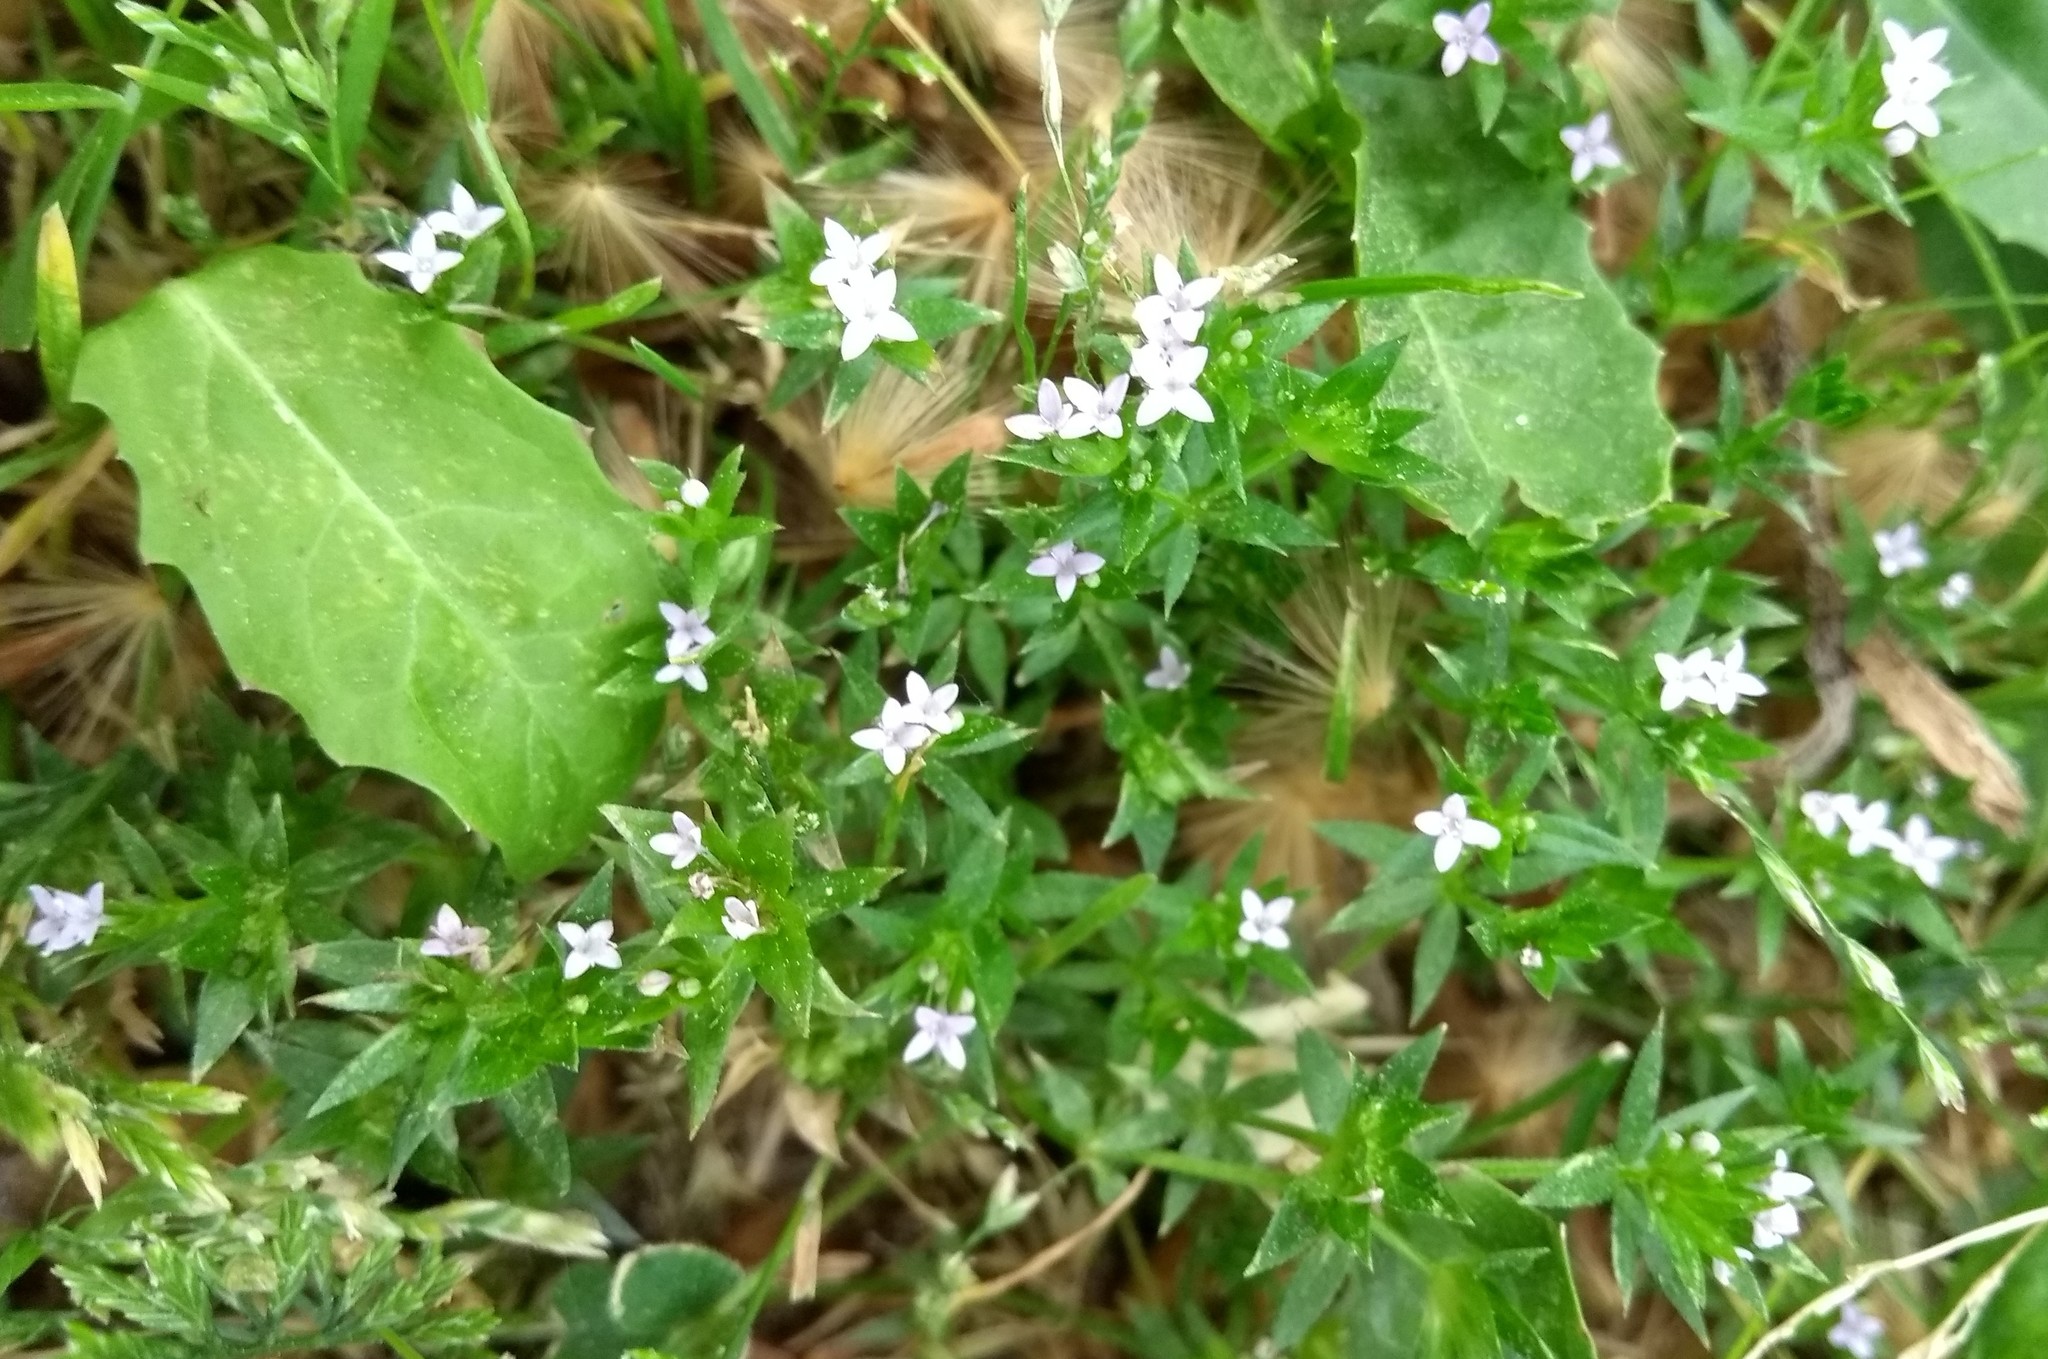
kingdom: Plantae
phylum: Tracheophyta
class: Magnoliopsida
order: Gentianales
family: Rubiaceae
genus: Sherardia
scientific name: Sherardia arvensis
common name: Field madder
